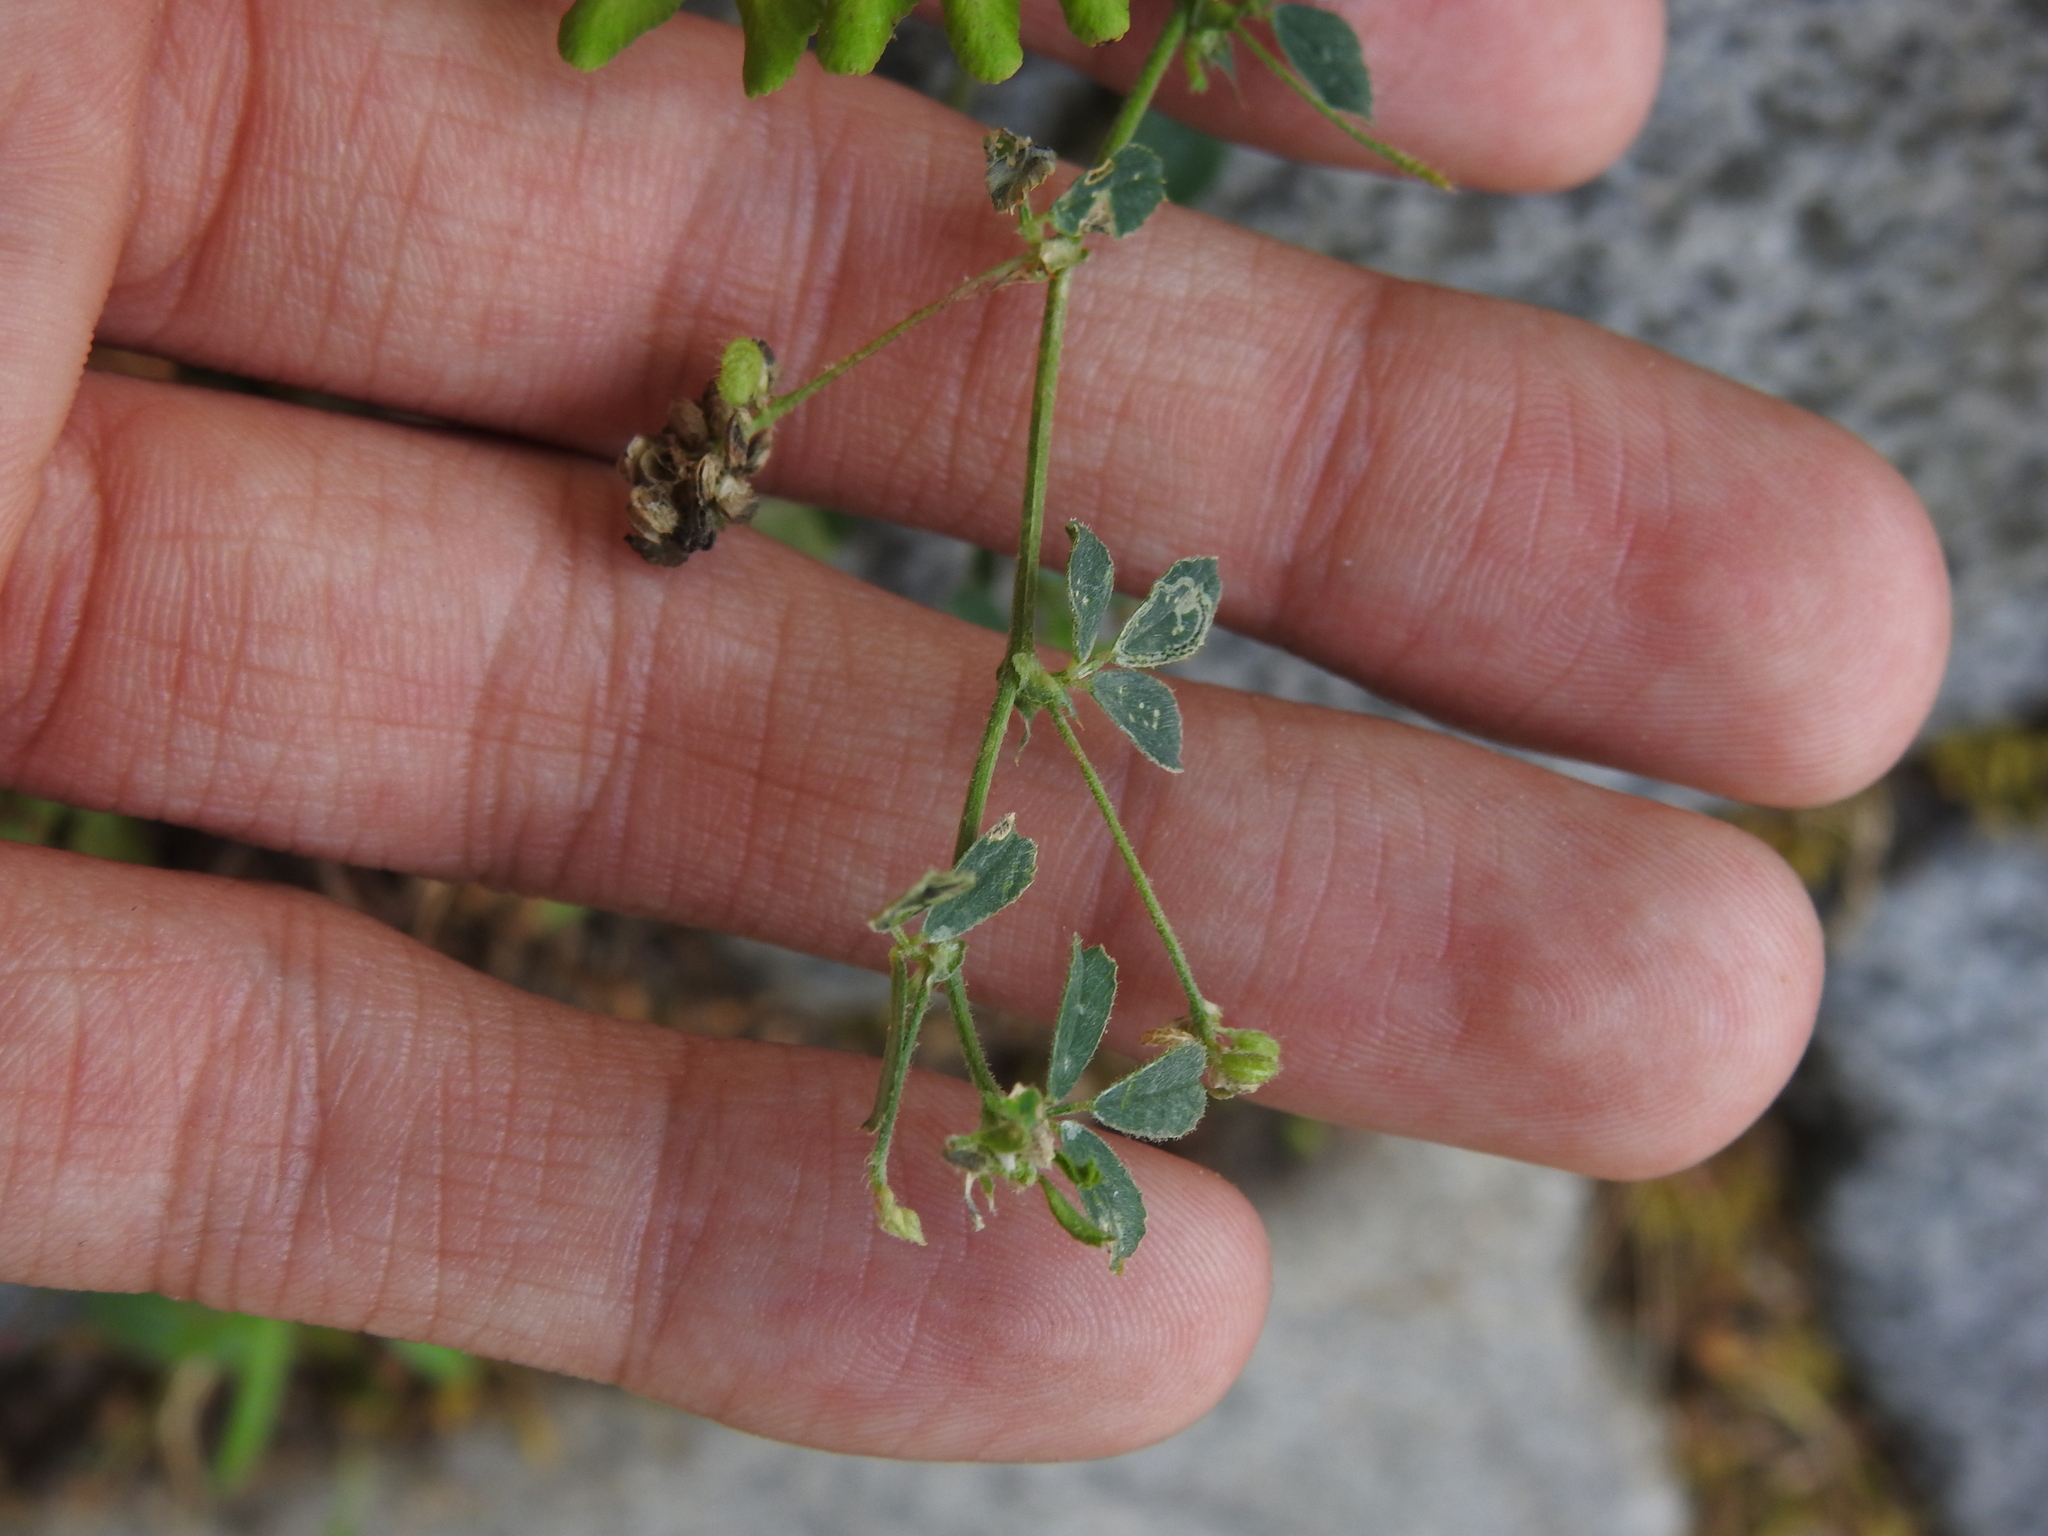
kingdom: Plantae
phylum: Tracheophyta
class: Magnoliopsida
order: Fabales
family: Fabaceae
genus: Medicago
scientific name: Medicago lupulina
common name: Black medick
